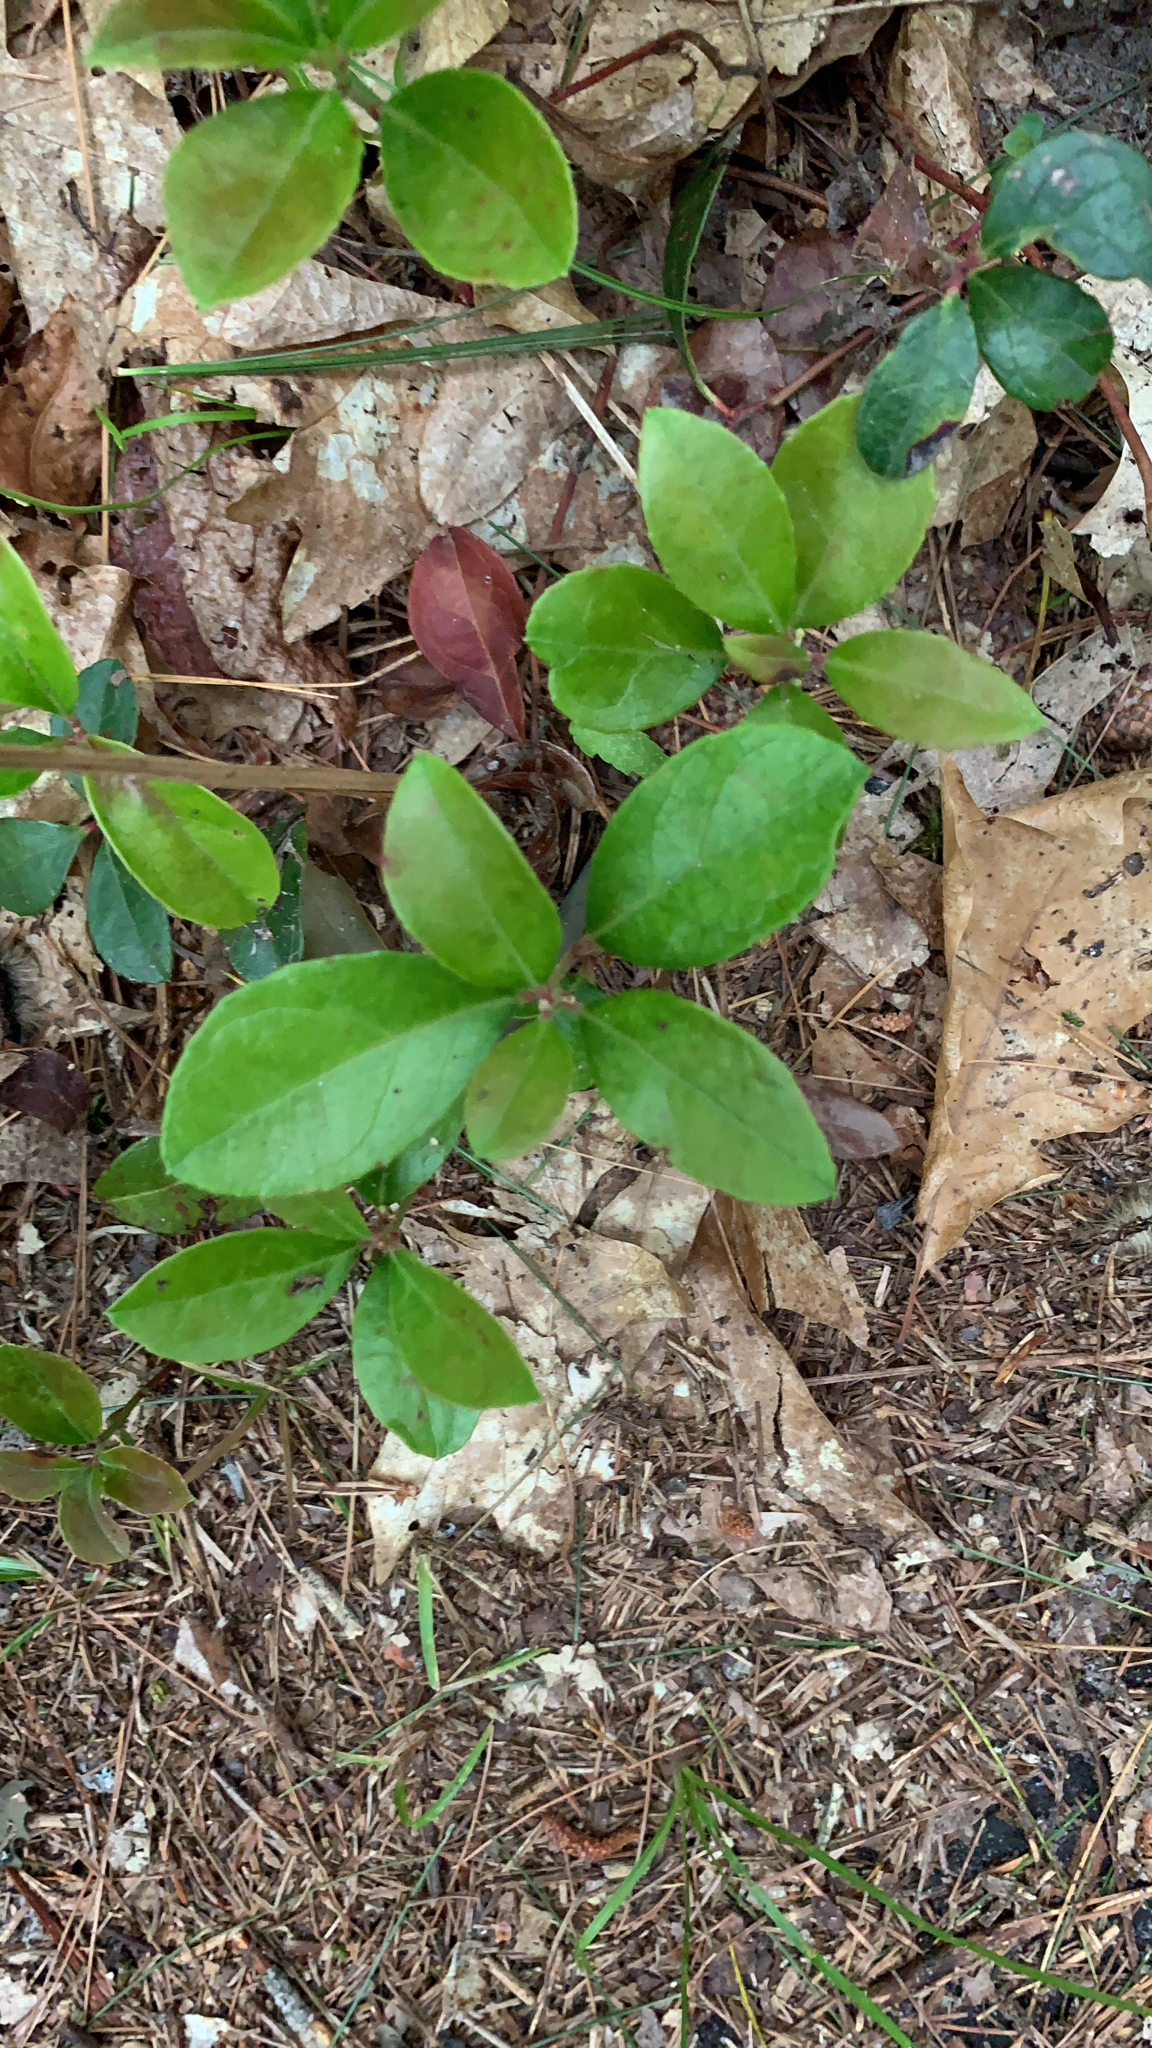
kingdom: Plantae
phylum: Tracheophyta
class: Magnoliopsida
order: Ericales
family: Ericaceae
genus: Gaultheria
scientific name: Gaultheria procumbens
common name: Checkerberry
